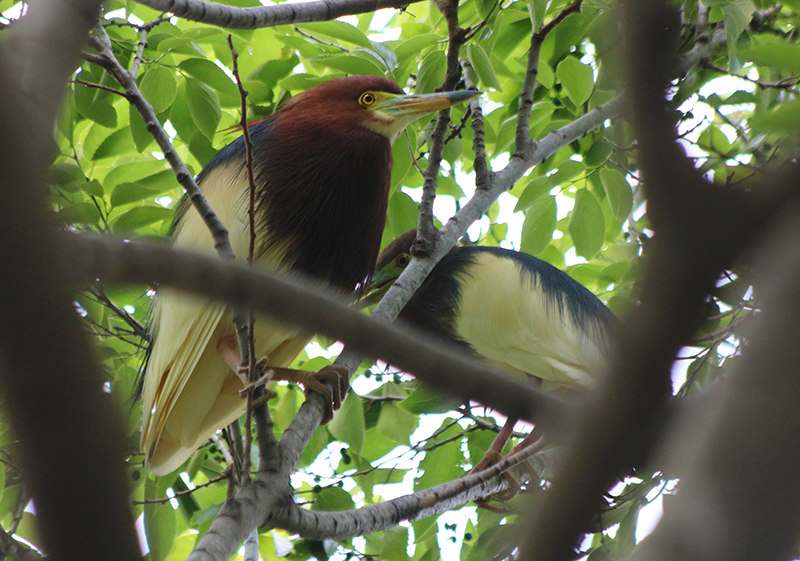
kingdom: Animalia
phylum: Chordata
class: Aves
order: Pelecaniformes
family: Ardeidae
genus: Ardeola
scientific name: Ardeola bacchus
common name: Chinese pond heron
